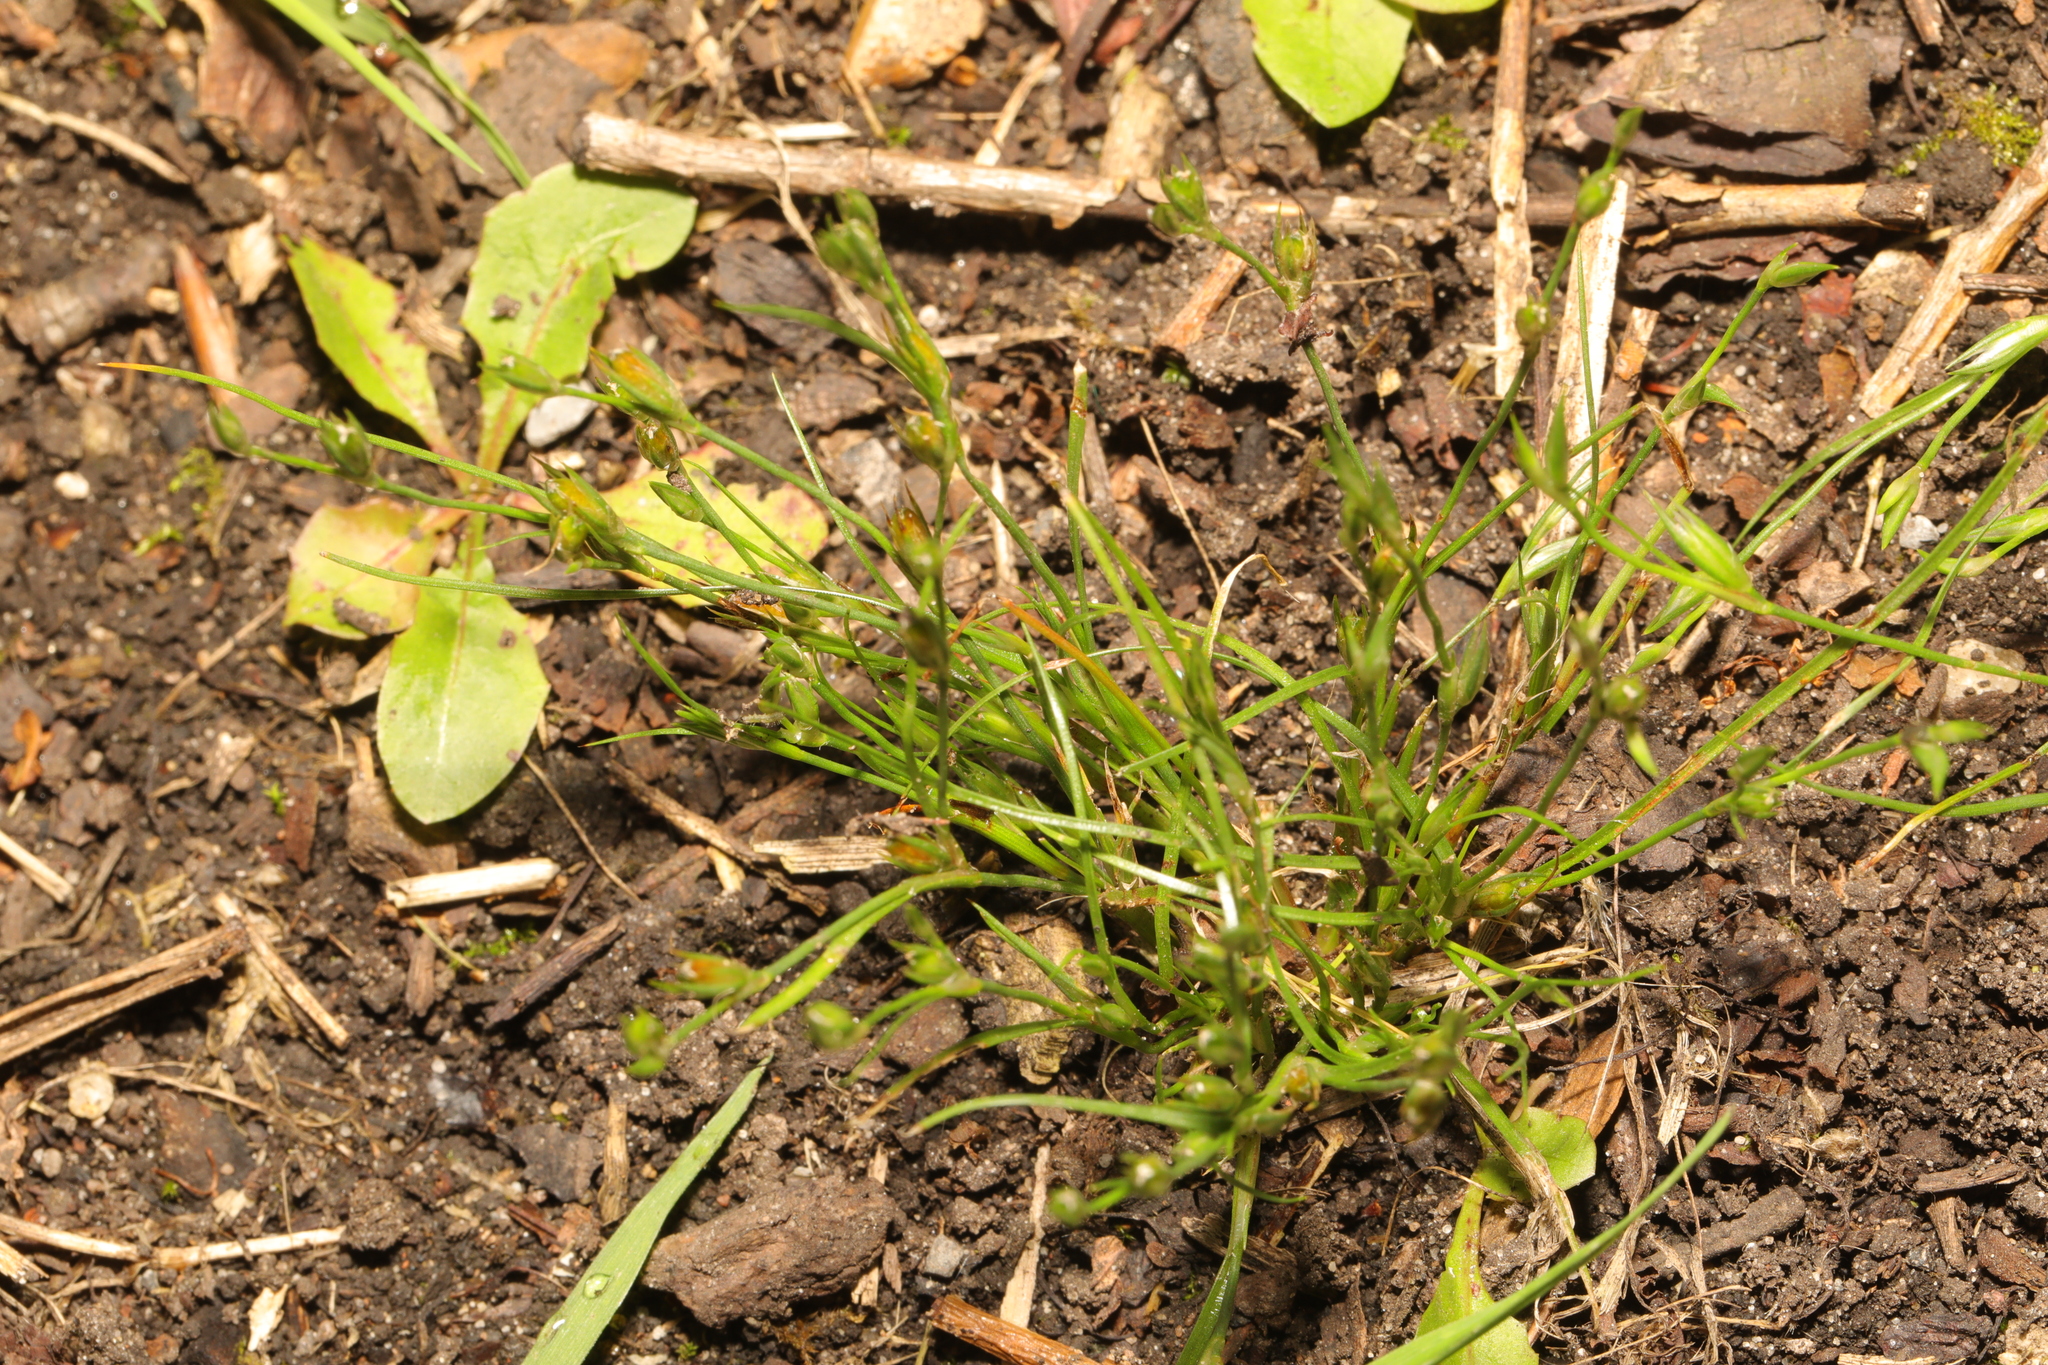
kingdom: Plantae
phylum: Tracheophyta
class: Liliopsida
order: Poales
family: Juncaceae
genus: Juncus
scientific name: Juncus bufonius
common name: Toad rush
